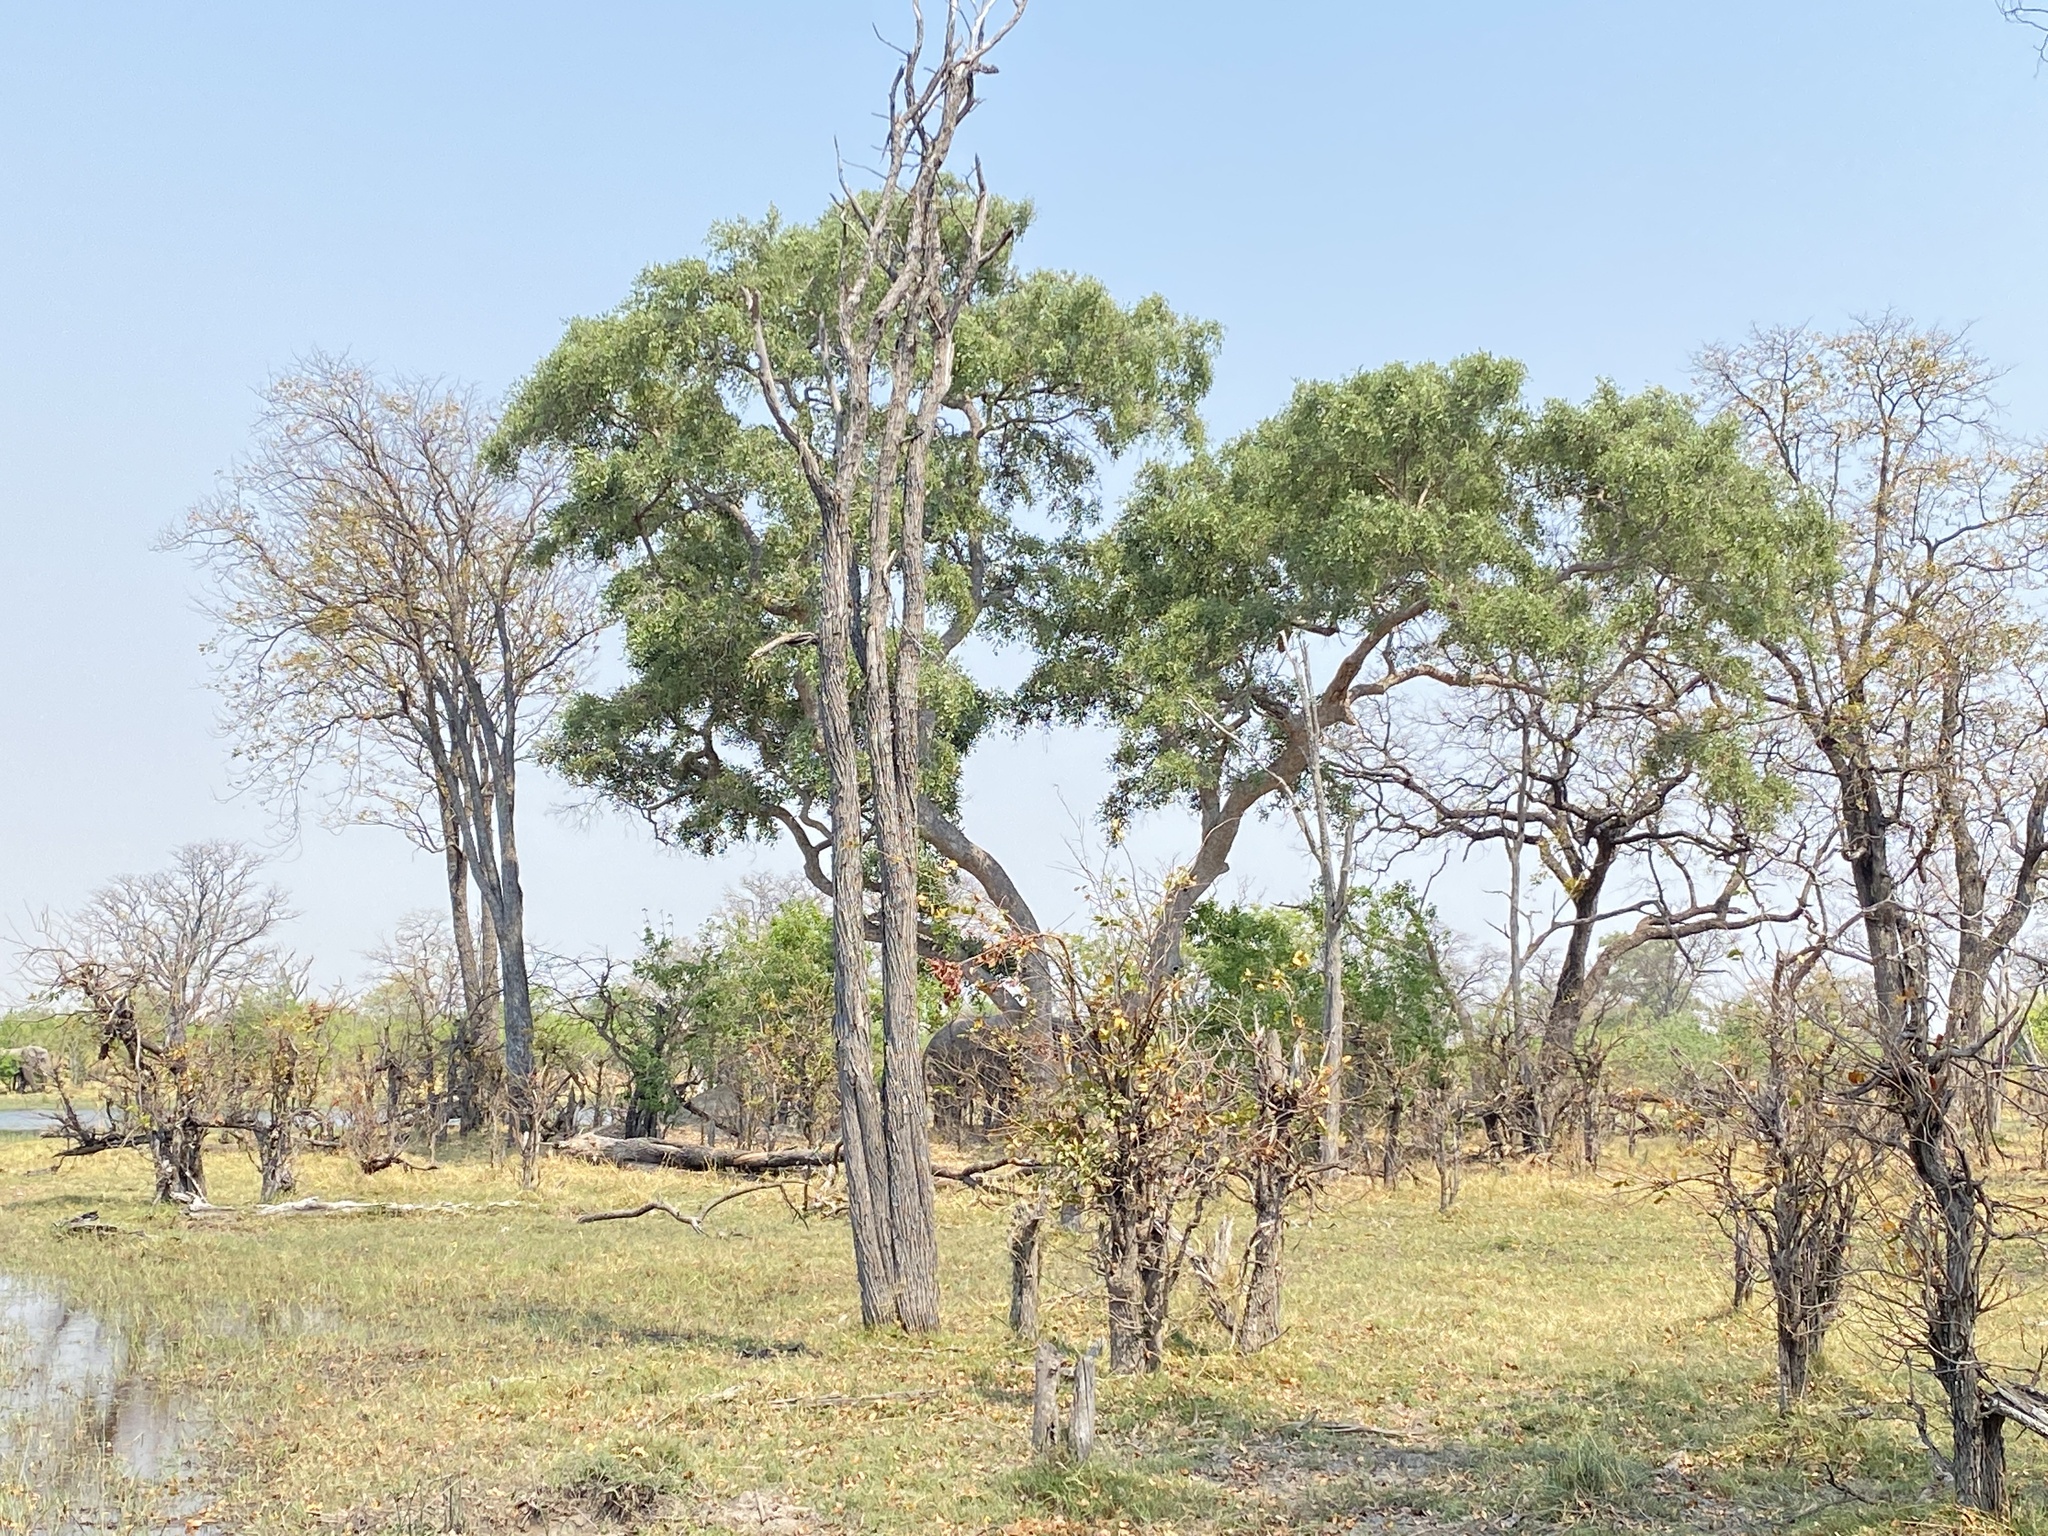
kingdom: Plantae
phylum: Tracheophyta
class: Magnoliopsida
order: Fabales
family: Fabaceae
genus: Philenoptera
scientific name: Philenoptera violacea
